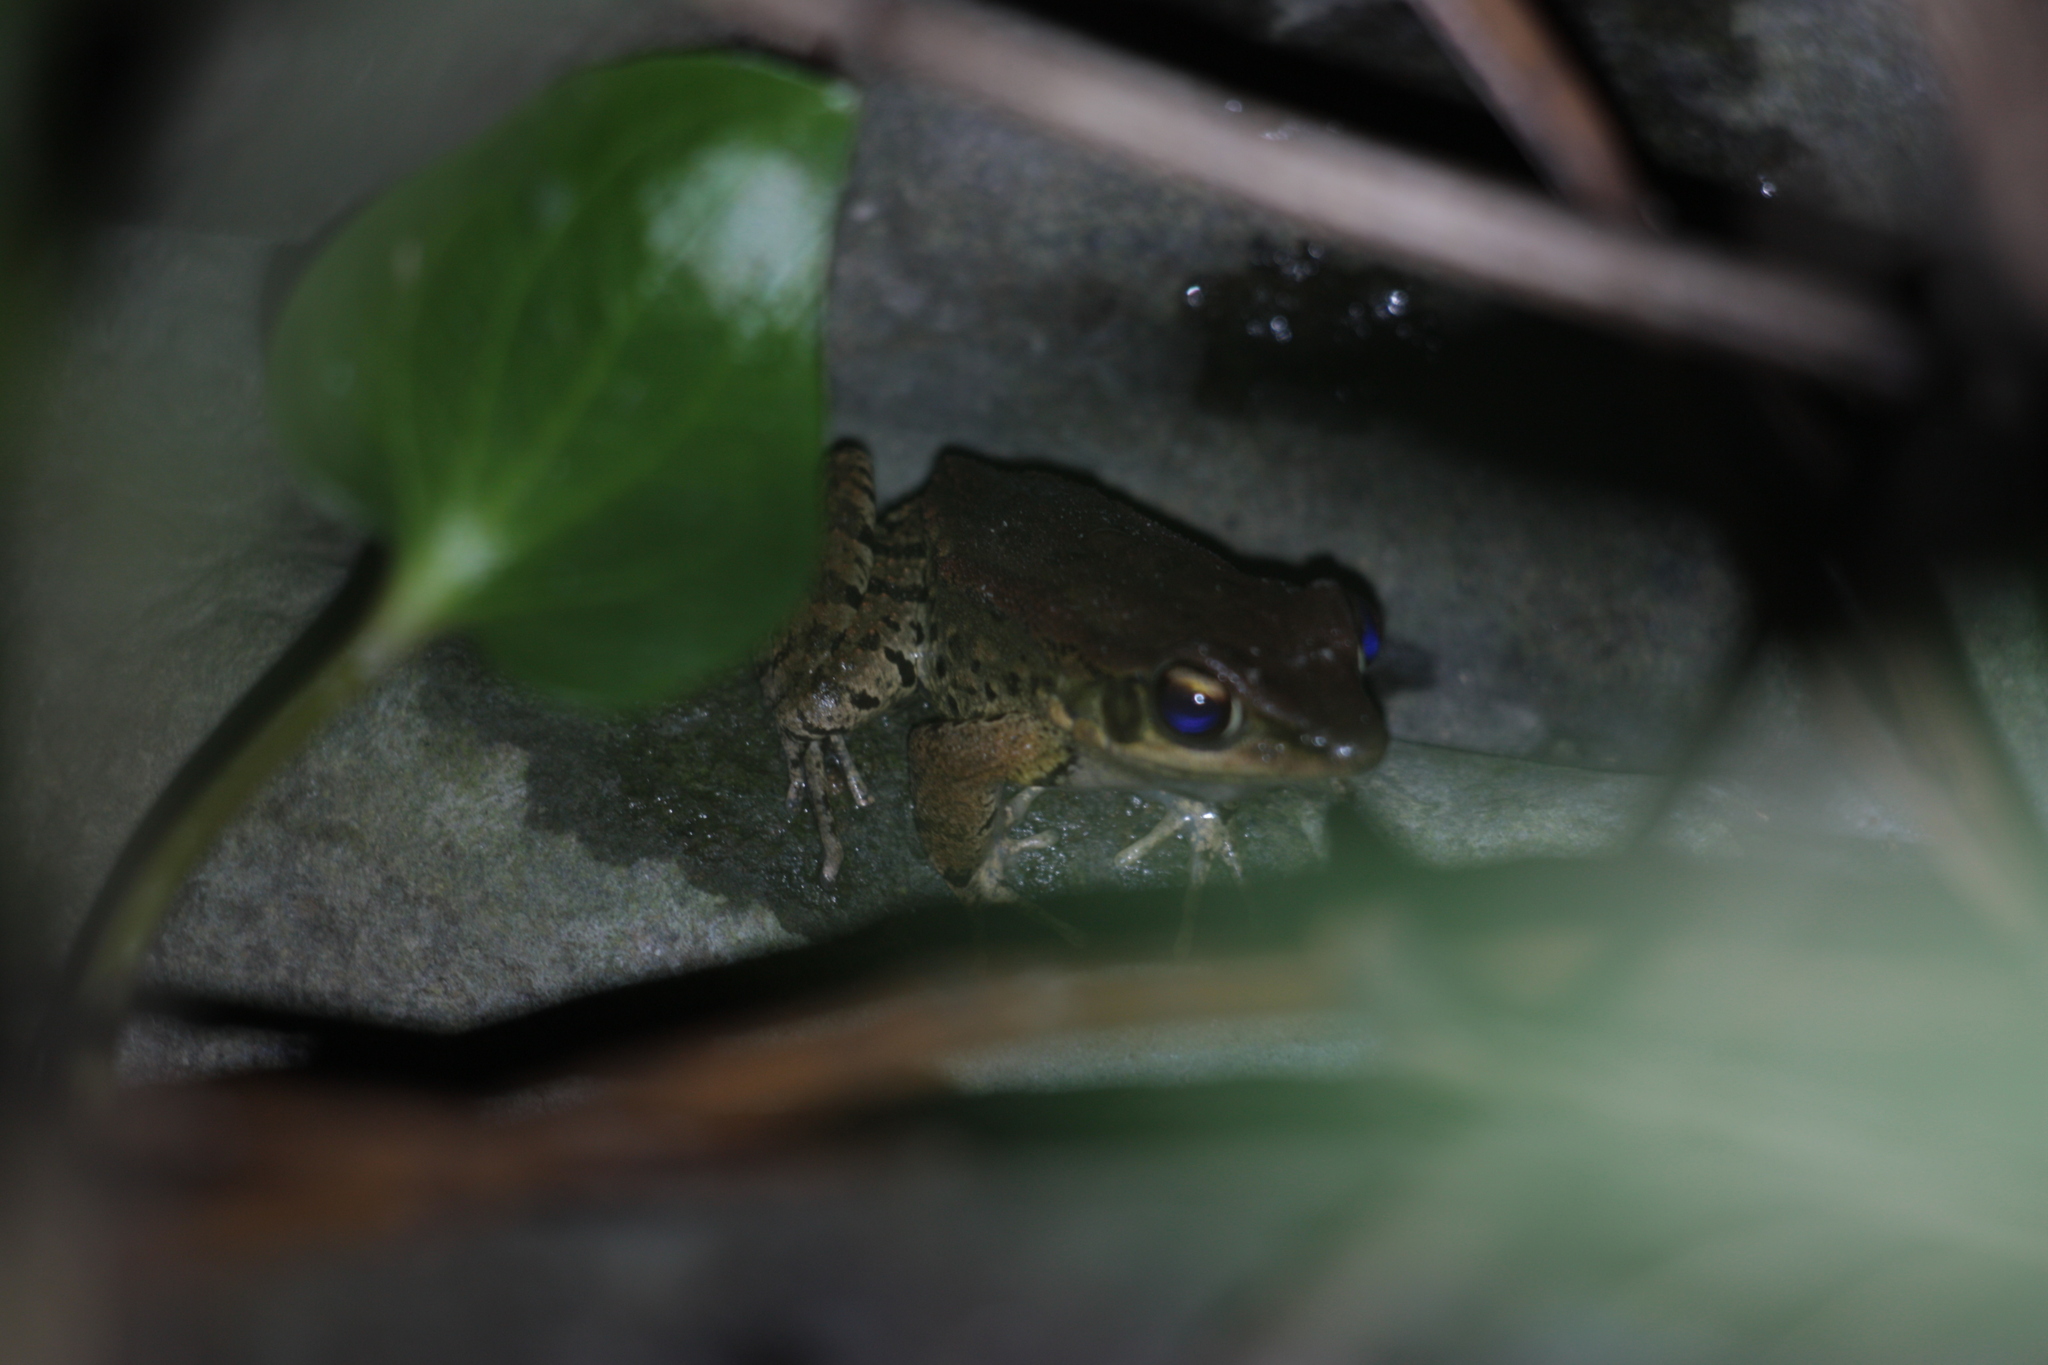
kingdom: Animalia
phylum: Chordata
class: Amphibia
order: Anura
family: Ranidae
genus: Hylarana
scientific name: Hylarana latouchii
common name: Broad-folded frog
